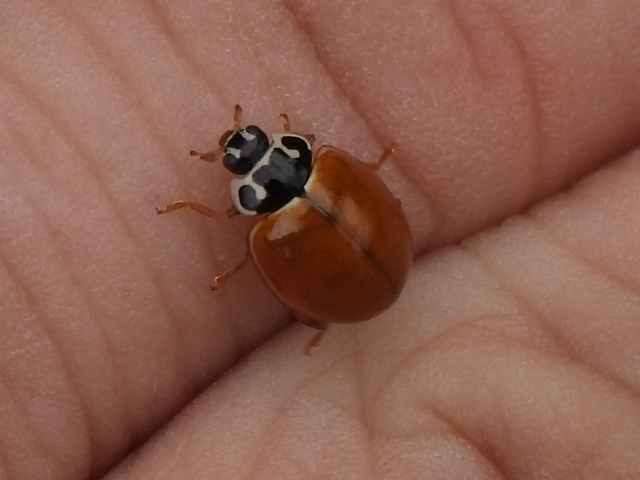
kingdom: Animalia
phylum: Arthropoda
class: Insecta
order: Coleoptera
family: Coccinellidae
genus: Cycloneda
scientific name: Cycloneda munda
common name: Polished lady beetle
